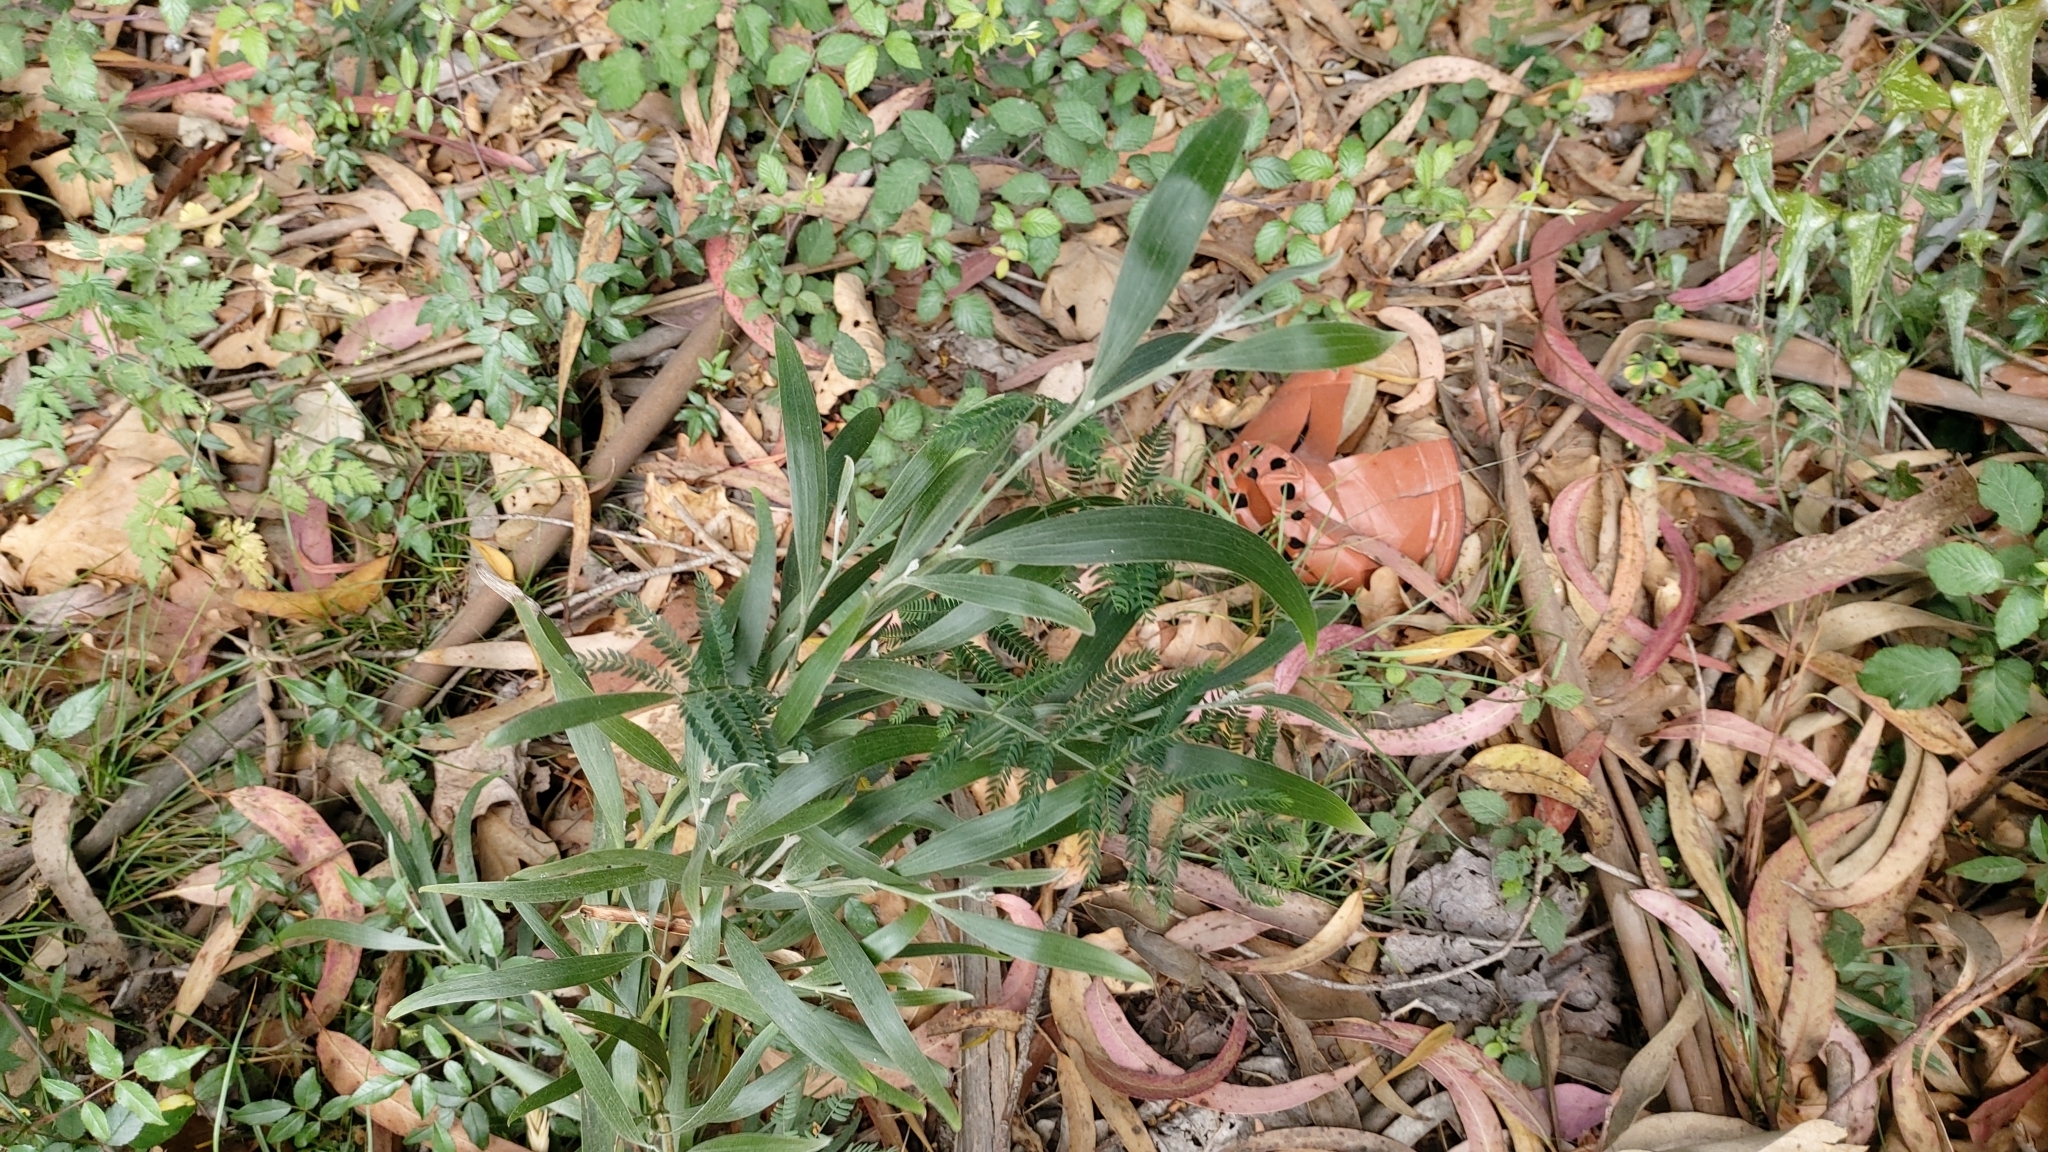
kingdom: Plantae
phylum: Tracheophyta
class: Magnoliopsida
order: Fabales
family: Fabaceae
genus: Acacia
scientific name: Acacia melanoxylon
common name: Blackwood
